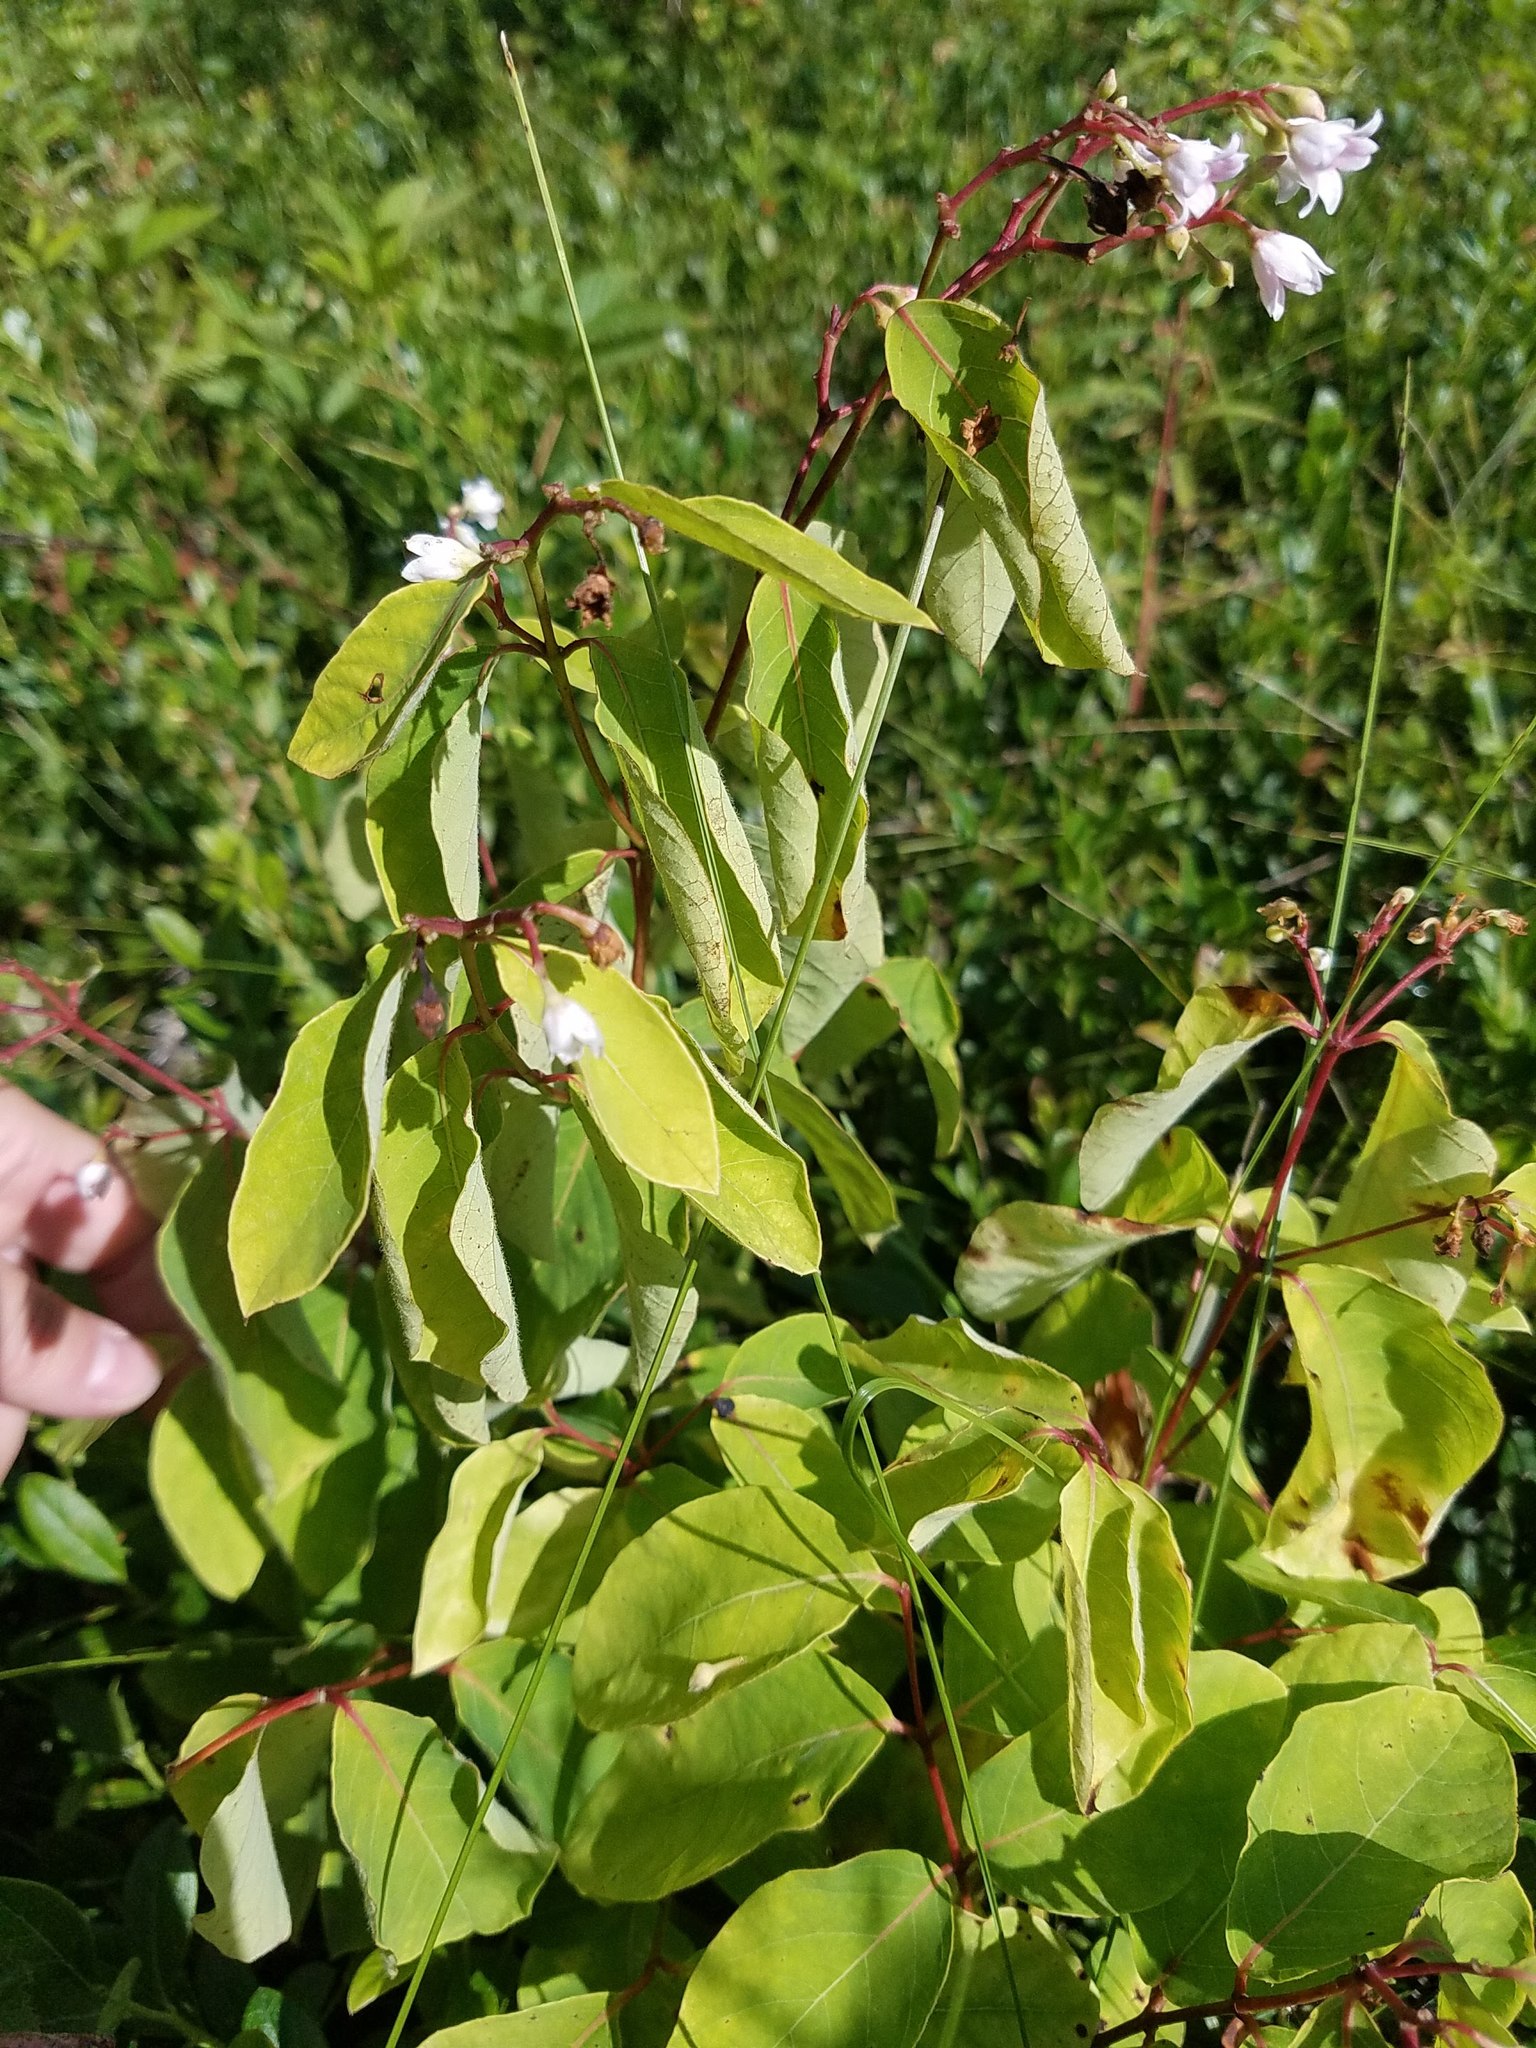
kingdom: Plantae
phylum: Tracheophyta
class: Magnoliopsida
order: Gentianales
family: Apocynaceae
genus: Apocynum
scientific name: Apocynum androsaemifolium
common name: Spreading dogbane
